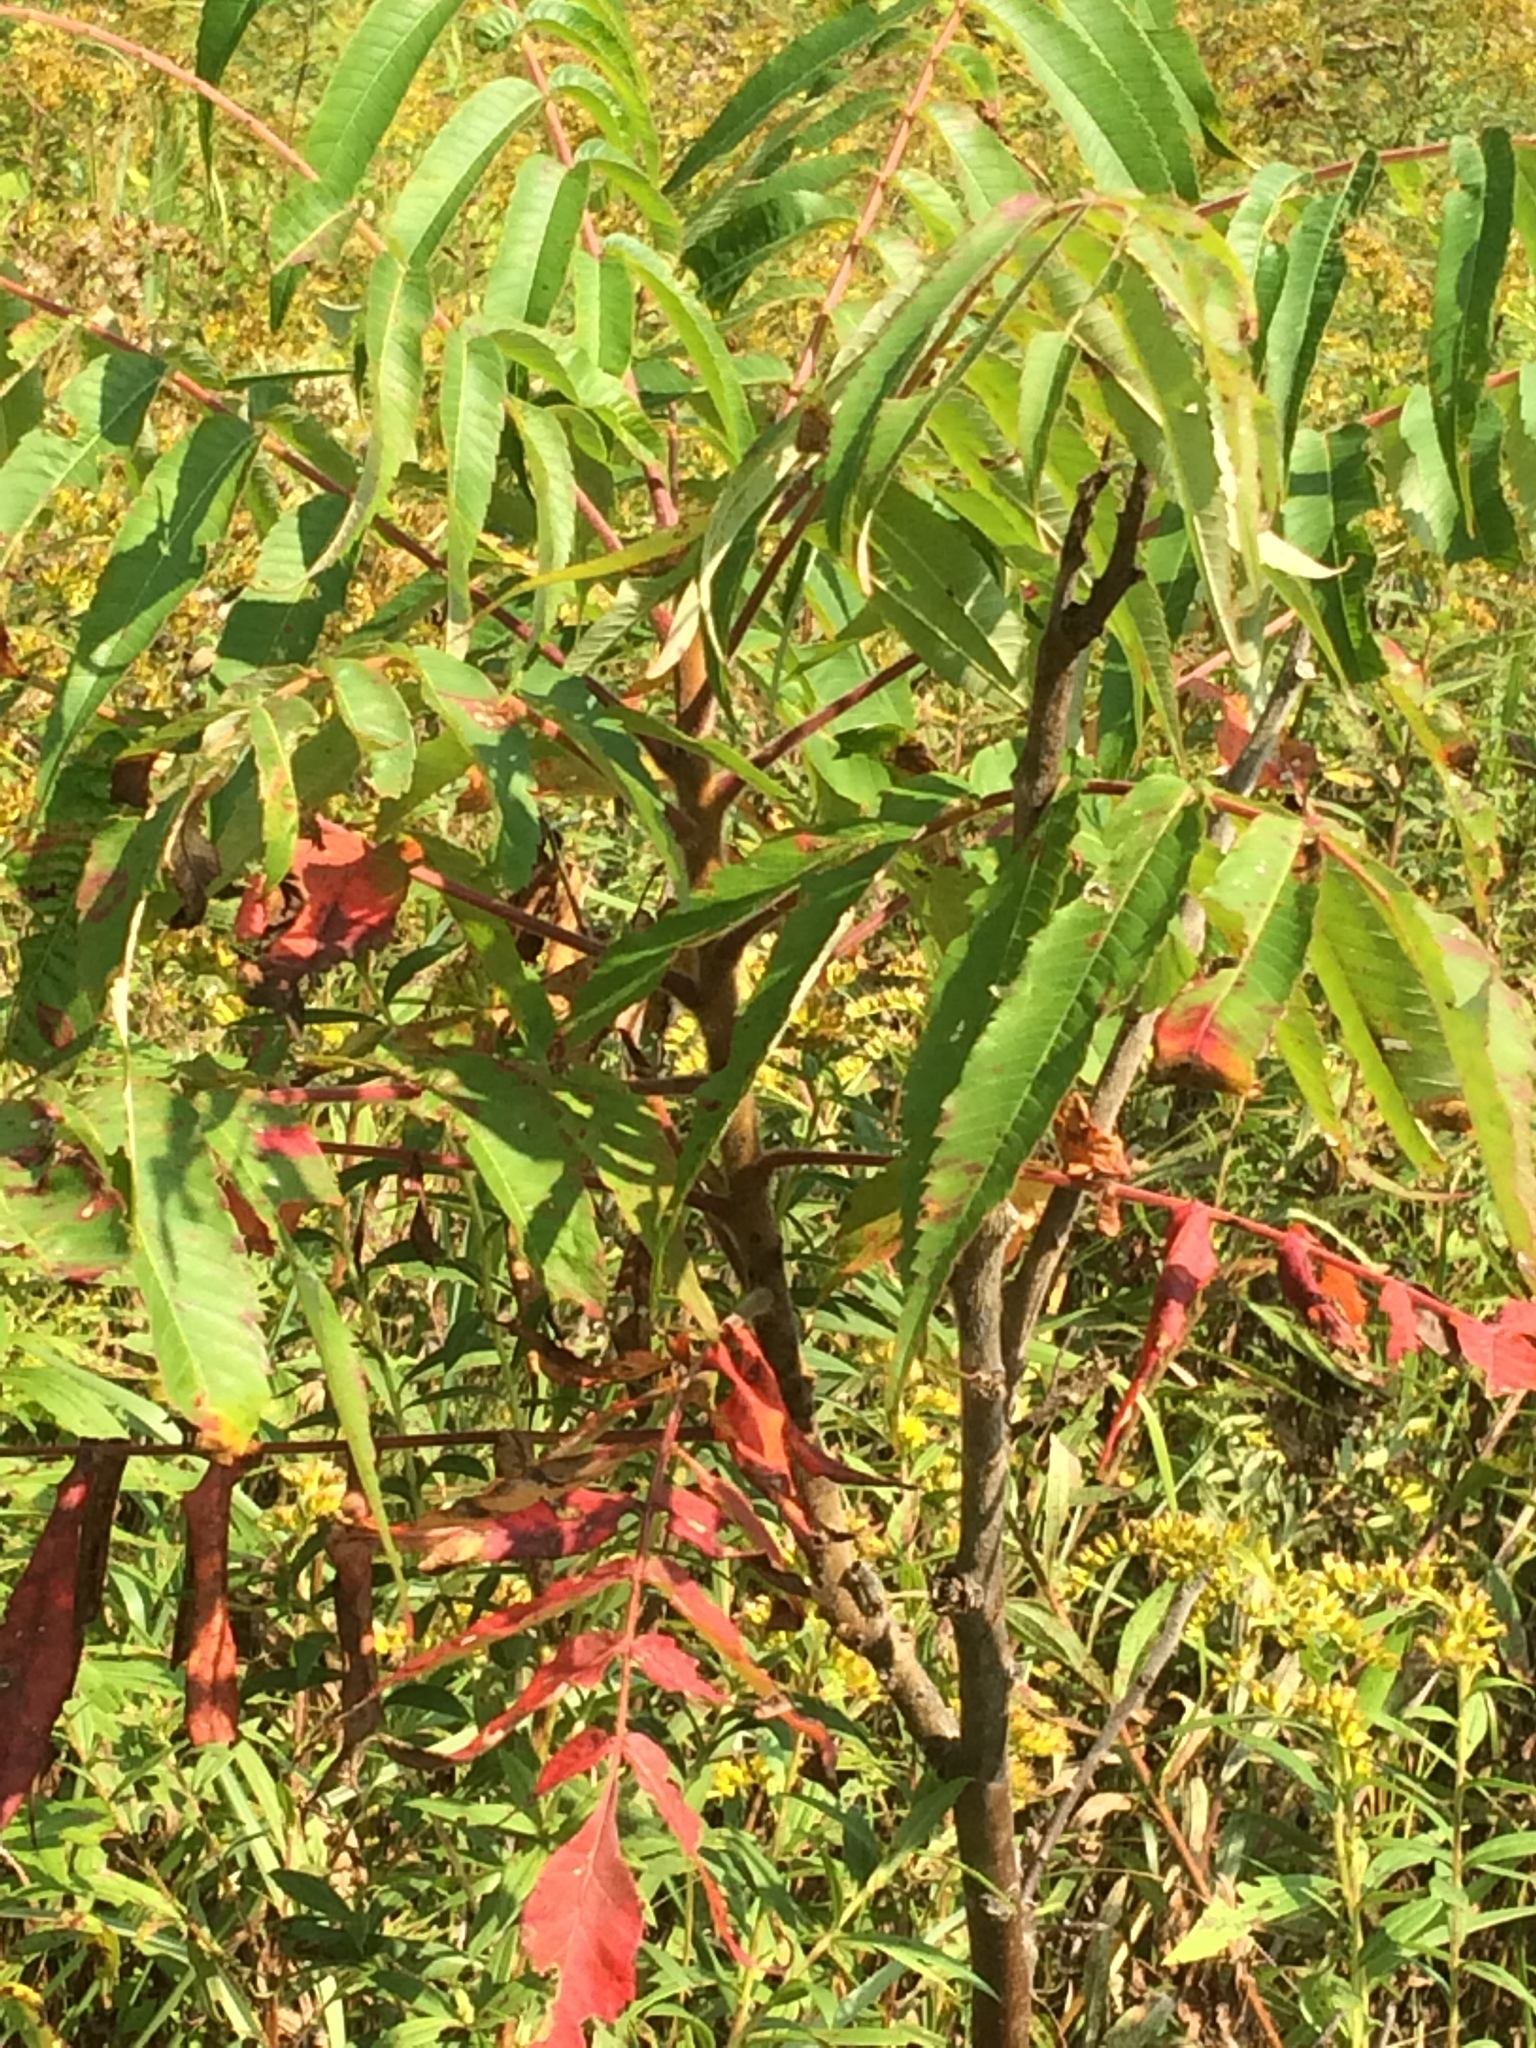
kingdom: Plantae
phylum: Tracheophyta
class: Magnoliopsida
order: Sapindales
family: Anacardiaceae
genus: Rhus
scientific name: Rhus typhina
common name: Staghorn sumac
